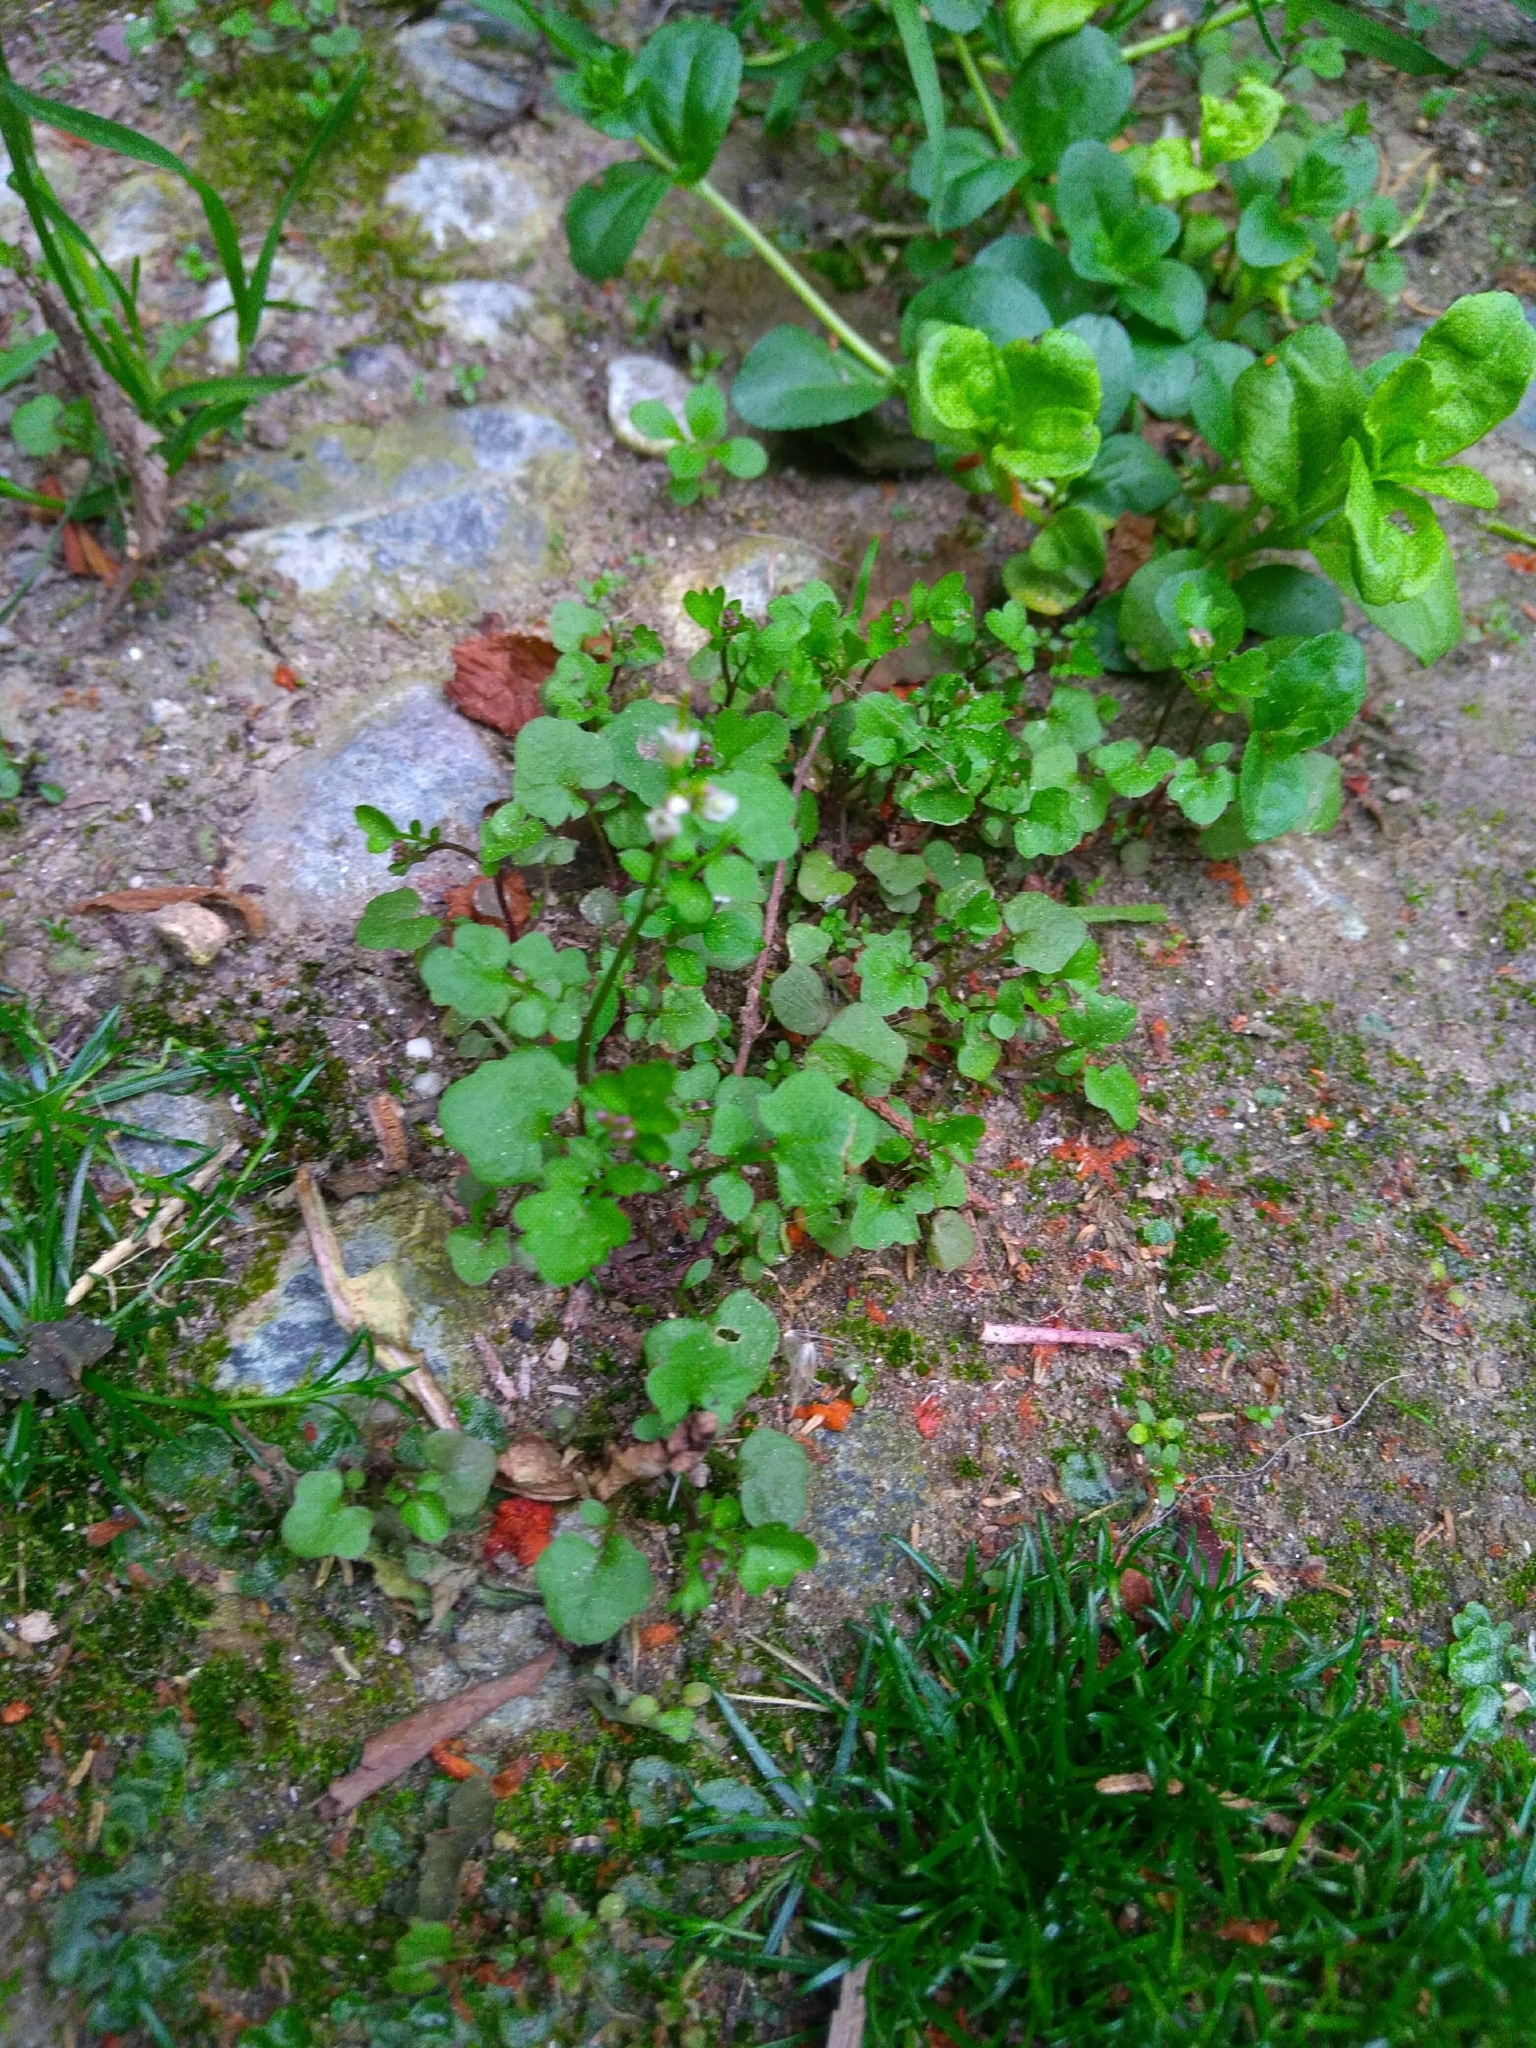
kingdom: Plantae
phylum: Tracheophyta
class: Magnoliopsida
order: Brassicales
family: Brassicaceae
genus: Cardamine
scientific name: Cardamine hirsuta
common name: Hairy bittercress
